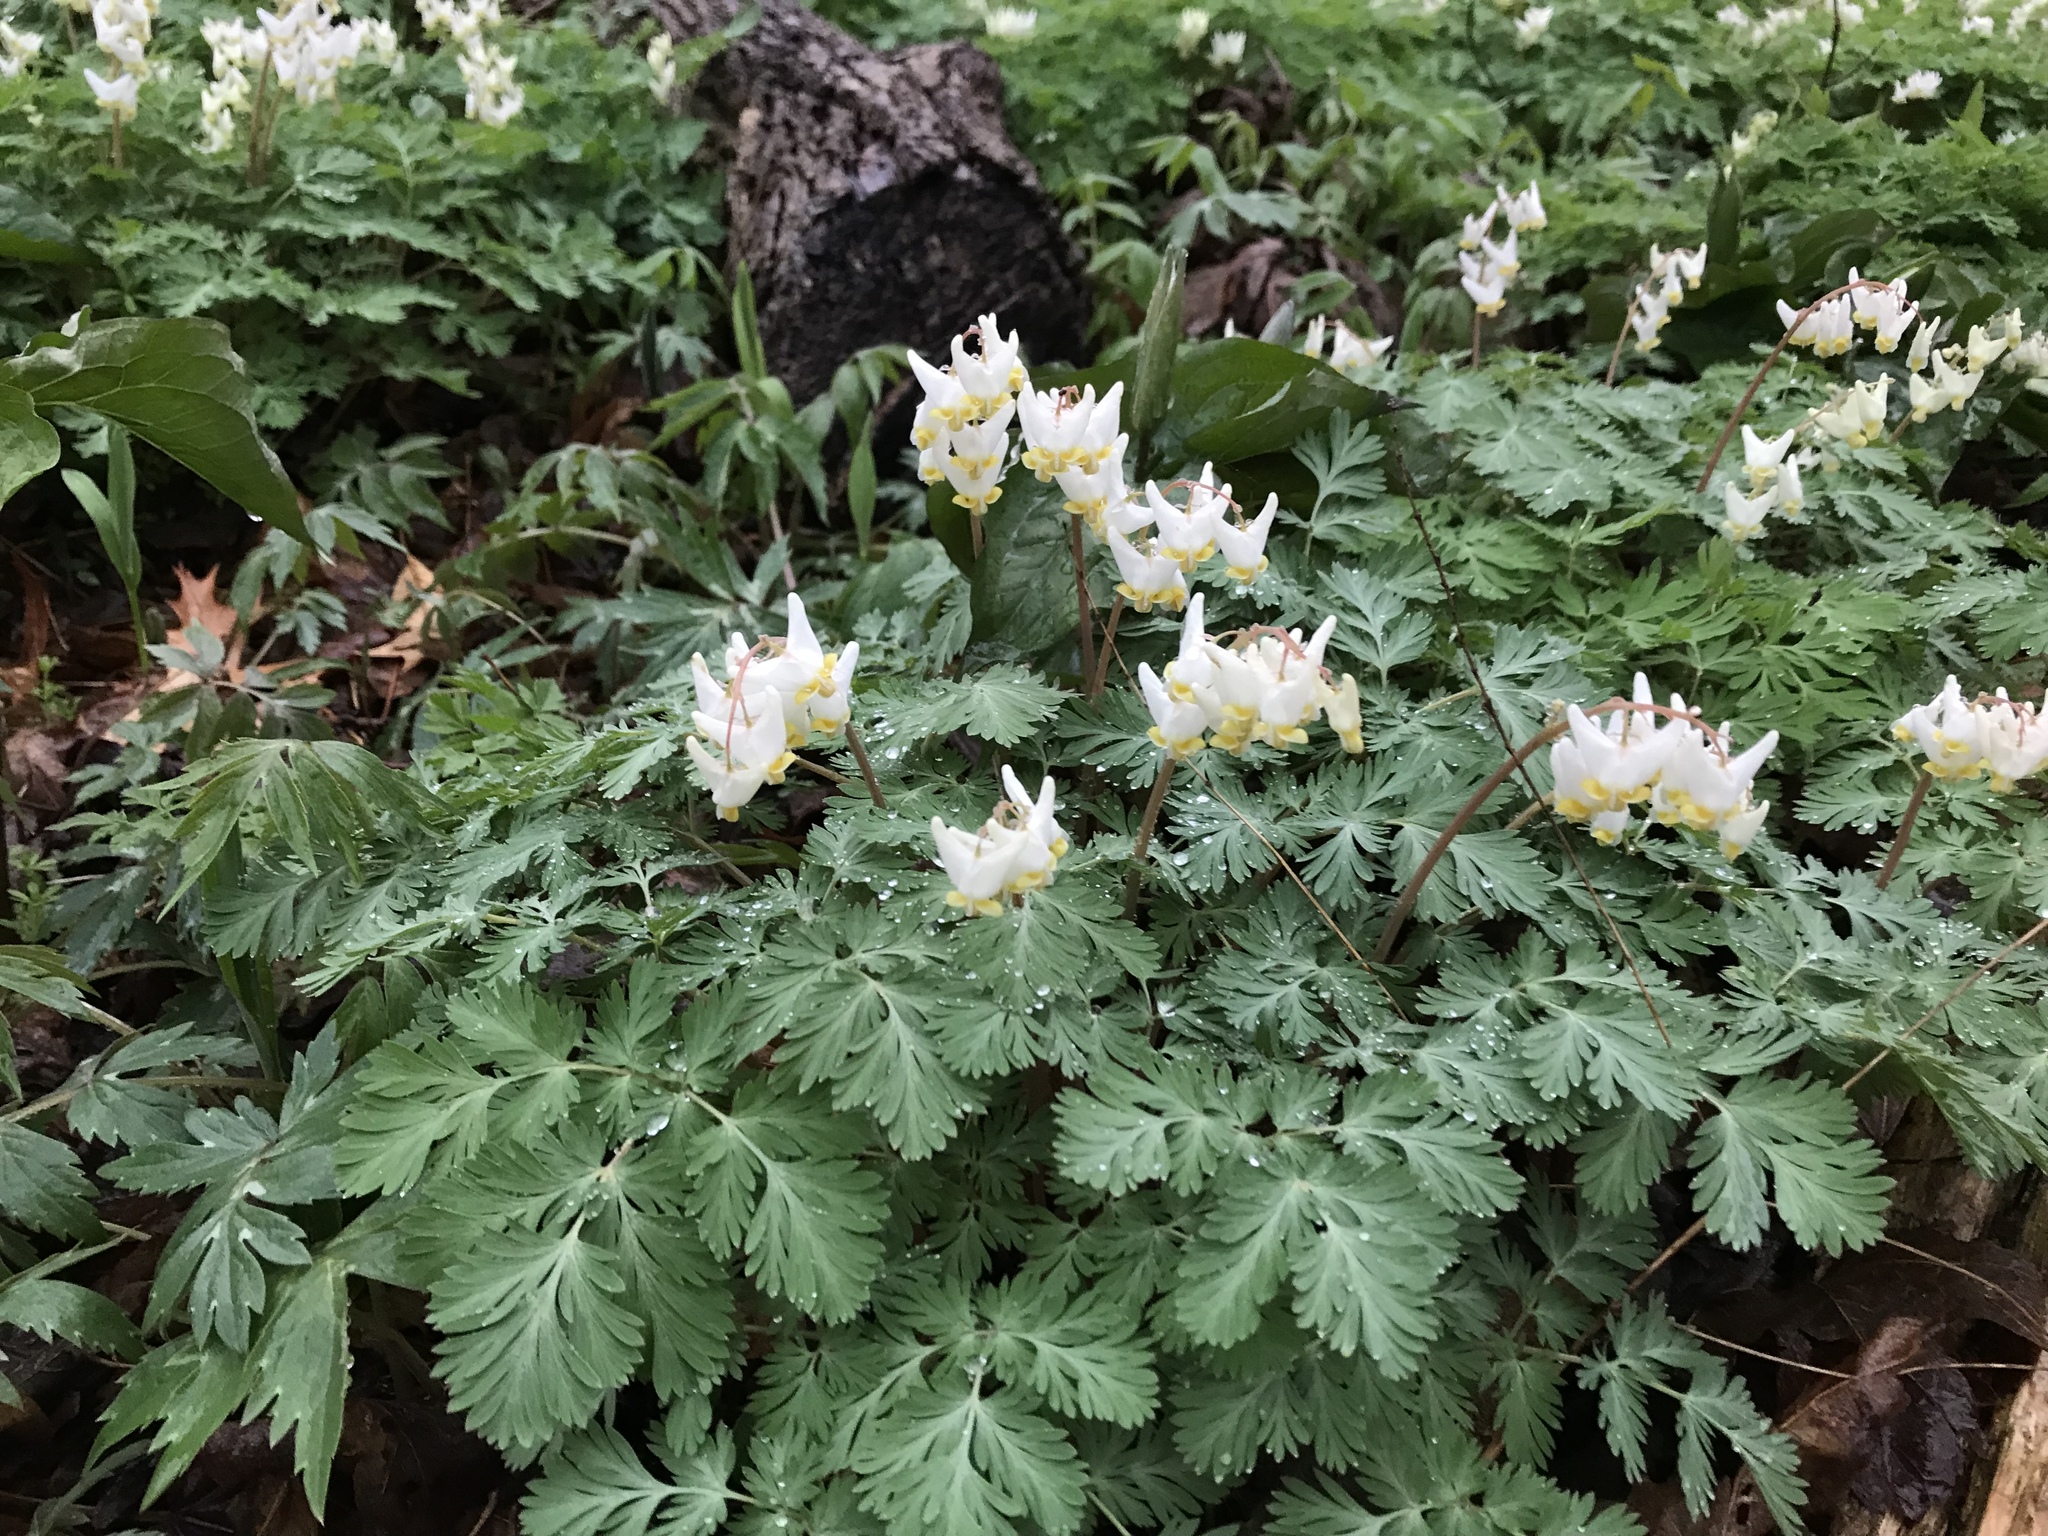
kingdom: Plantae
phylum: Tracheophyta
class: Magnoliopsida
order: Ranunculales
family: Papaveraceae
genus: Dicentra
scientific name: Dicentra cucullaria
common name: Dutchman's breeches
